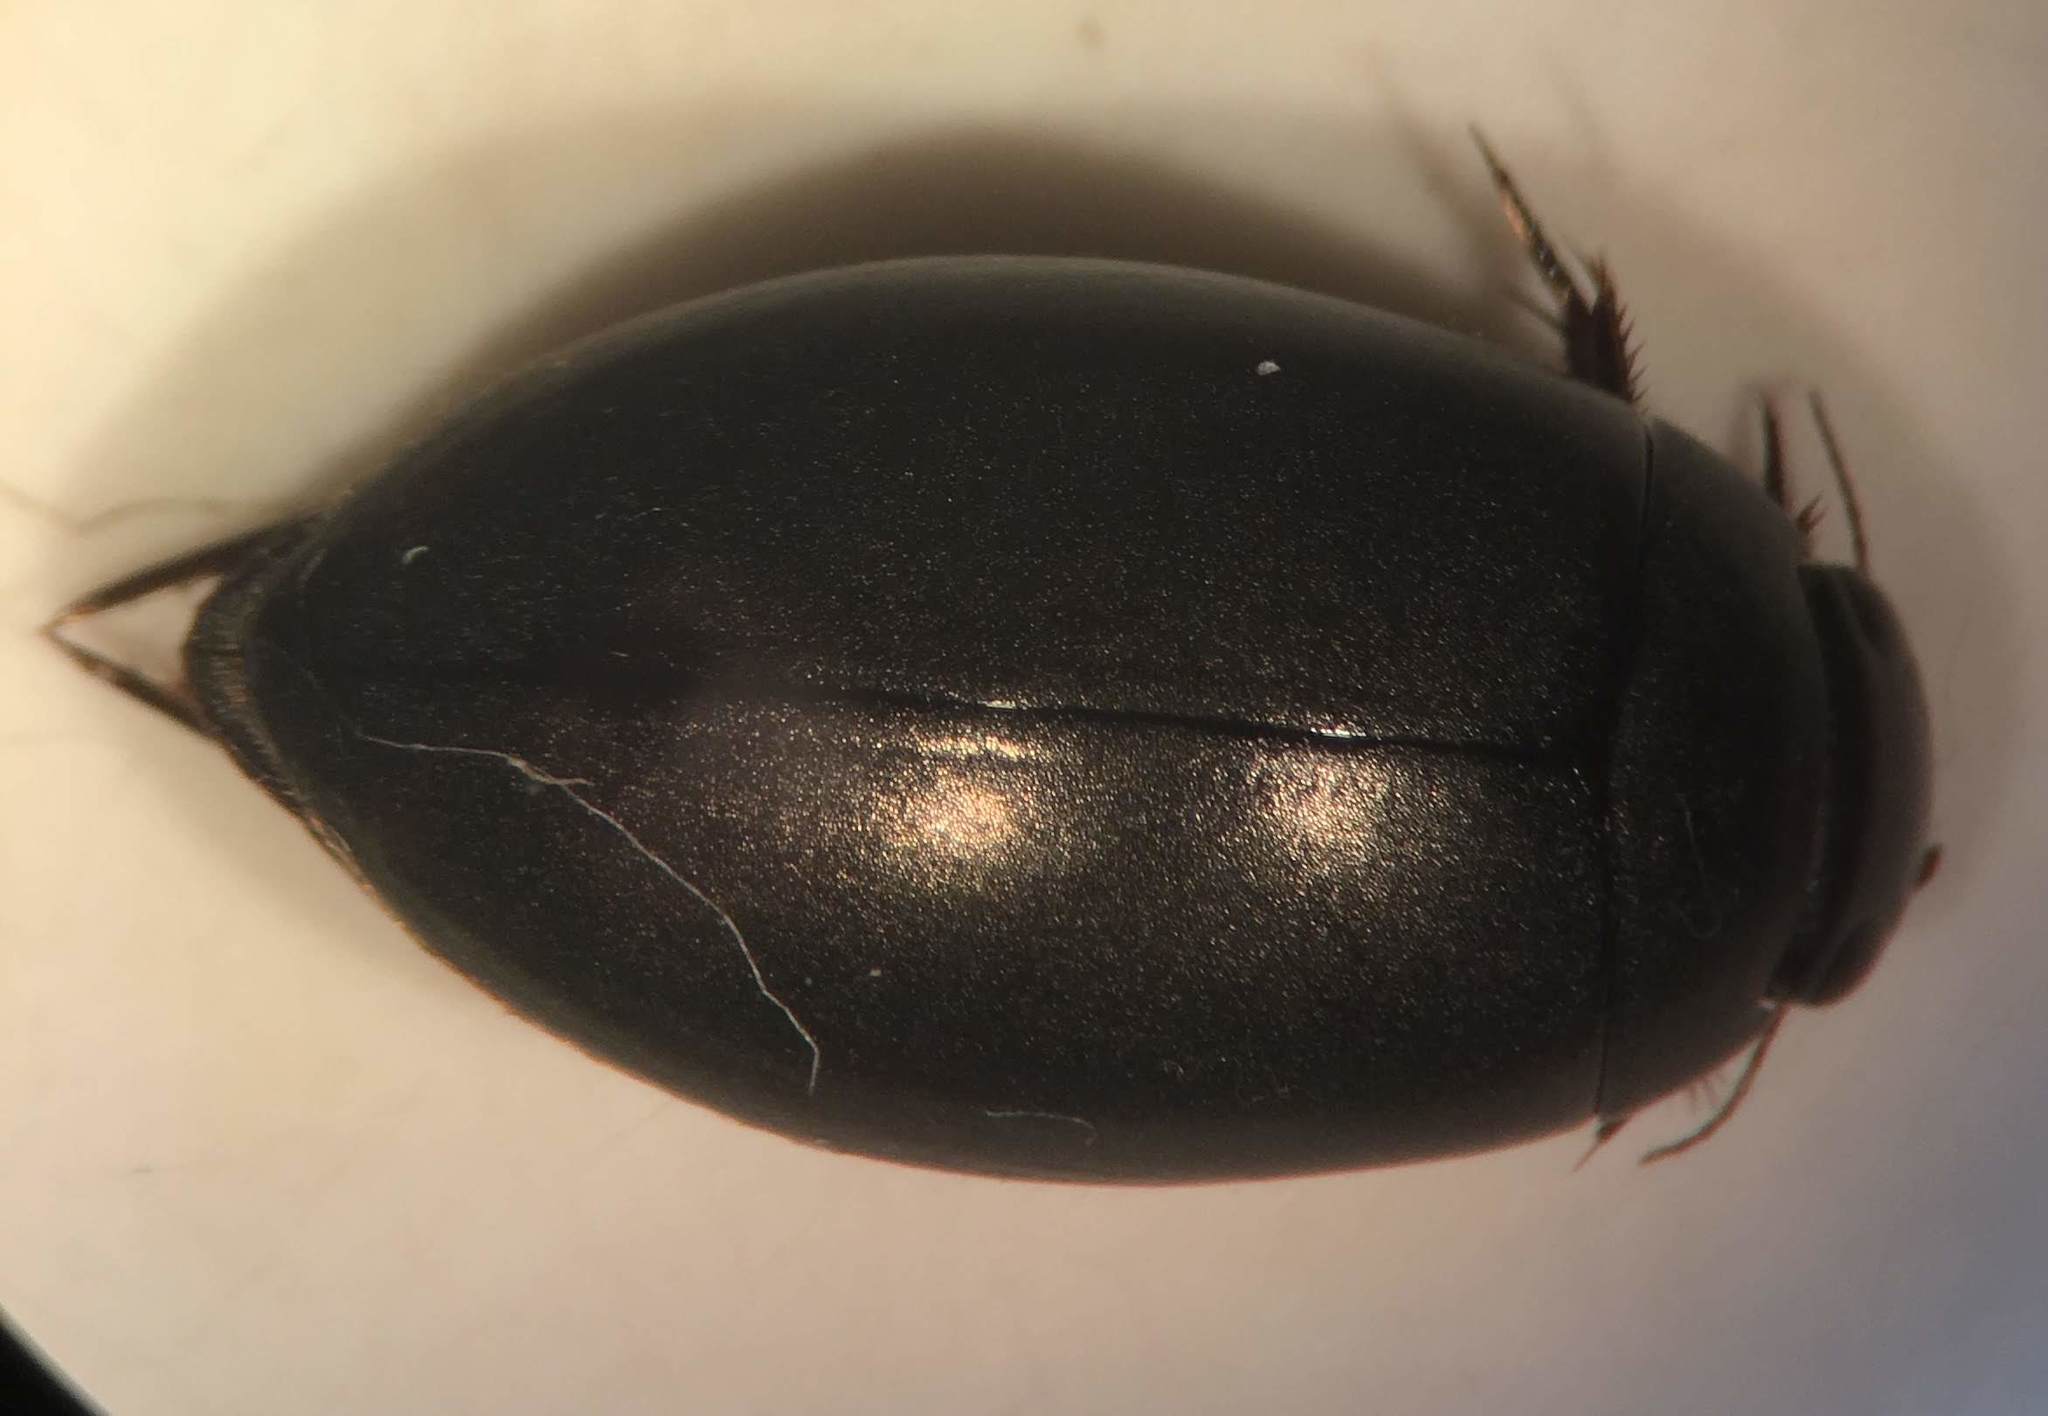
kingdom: Animalia
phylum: Arthropoda
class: Insecta
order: Coleoptera
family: Dytiscidae
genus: Ilybius
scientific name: Ilybius oblitus
